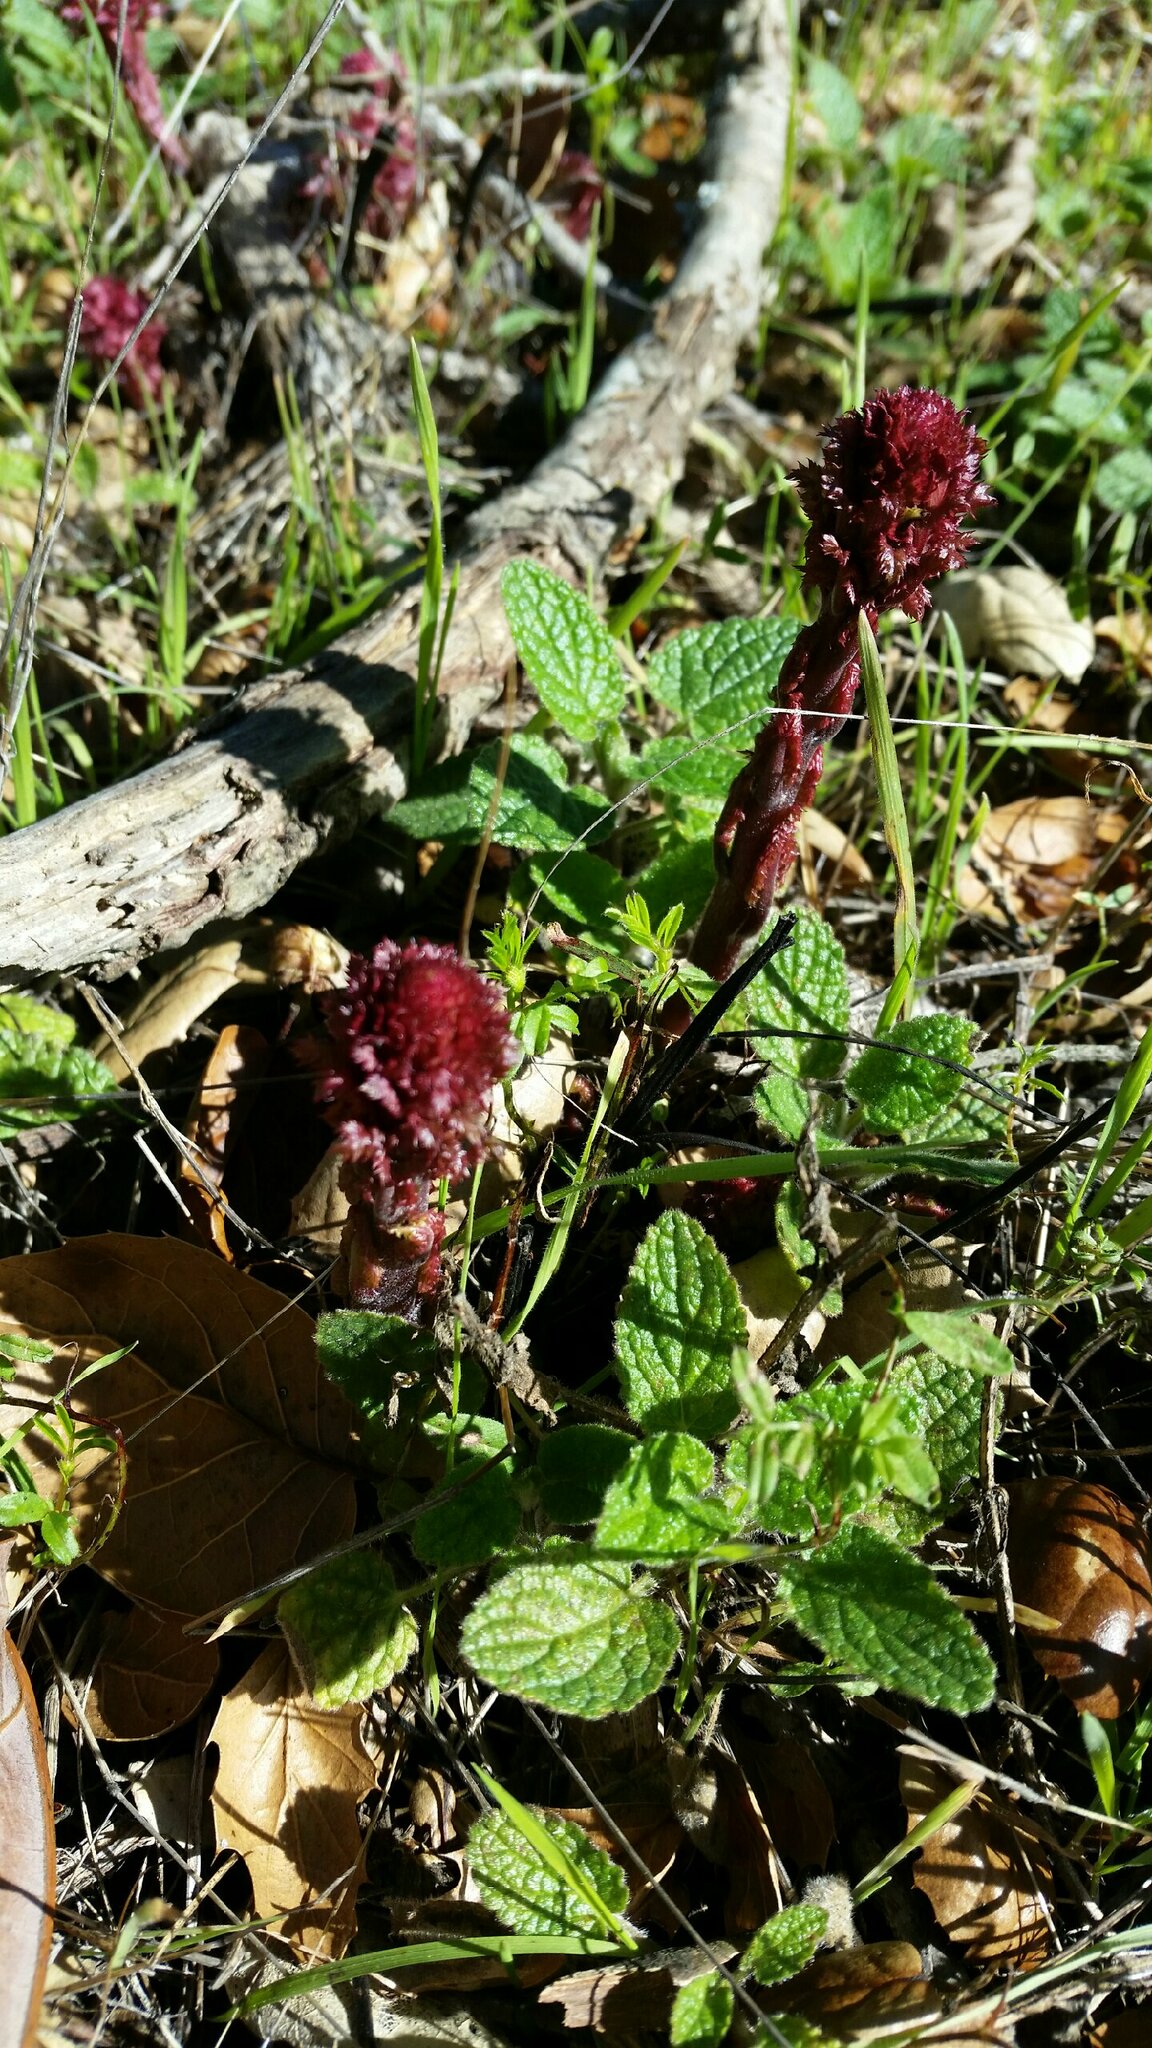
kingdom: Plantae
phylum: Tracheophyta
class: Magnoliopsida
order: Lamiales
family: Orobanchaceae
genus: Pedicularis
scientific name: Pedicularis densiflora
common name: Indian warrior
